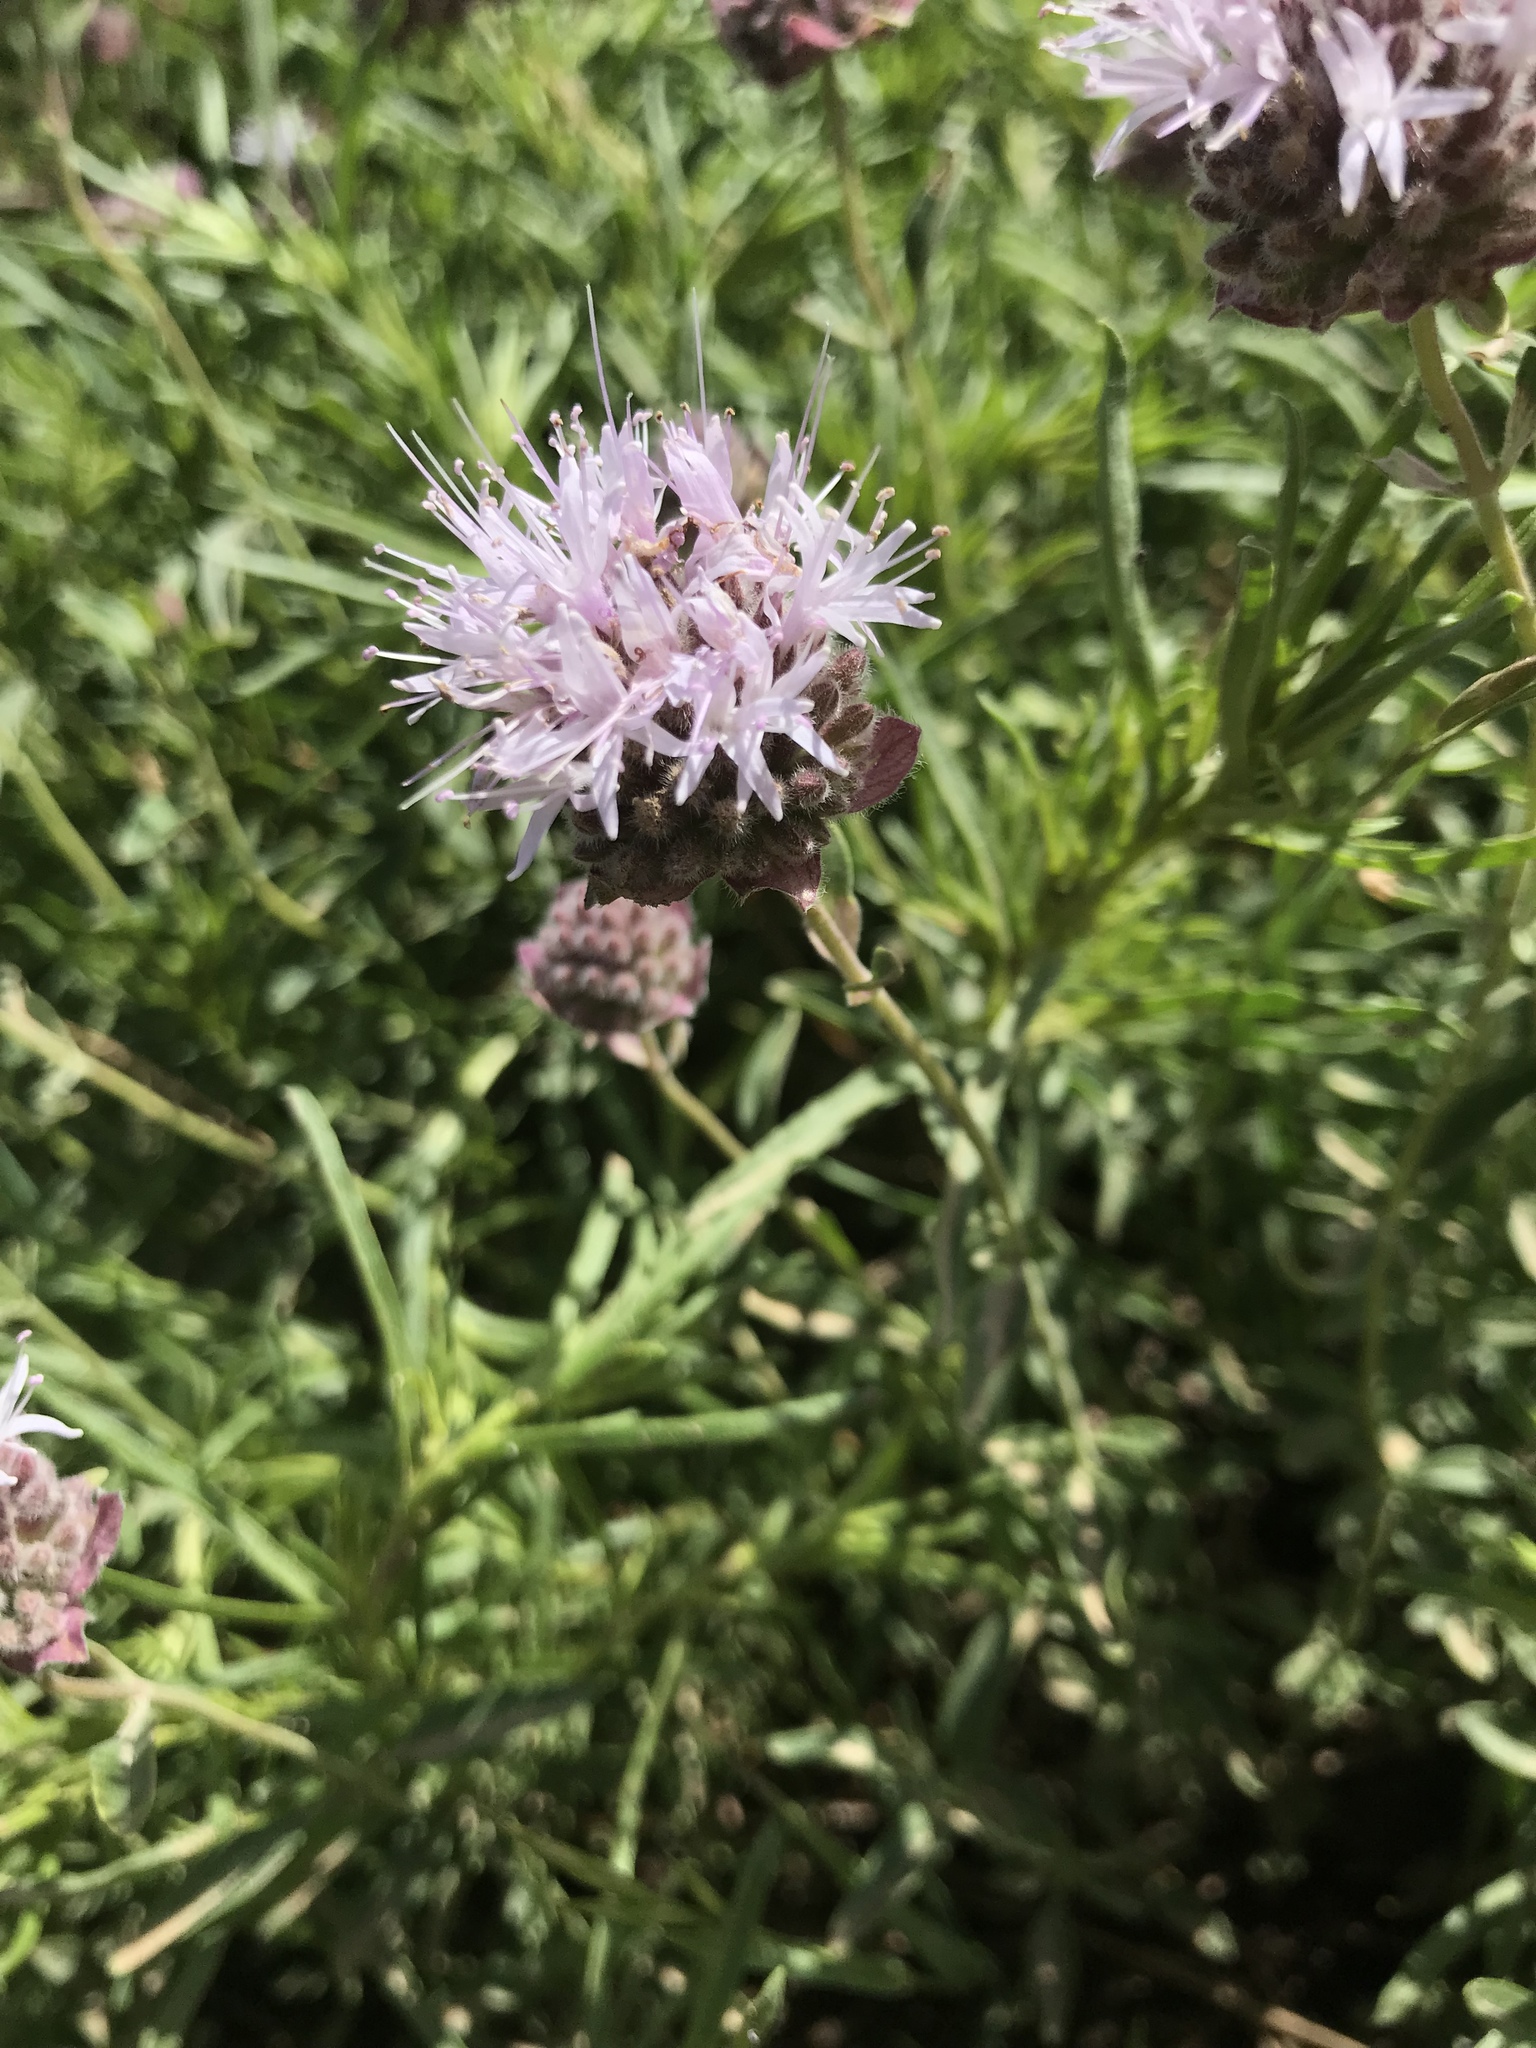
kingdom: Plantae
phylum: Tracheophyta
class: Magnoliopsida
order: Lamiales
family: Lamiaceae
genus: Monardella
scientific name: Monardella odoratissima
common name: Pacific monardella
